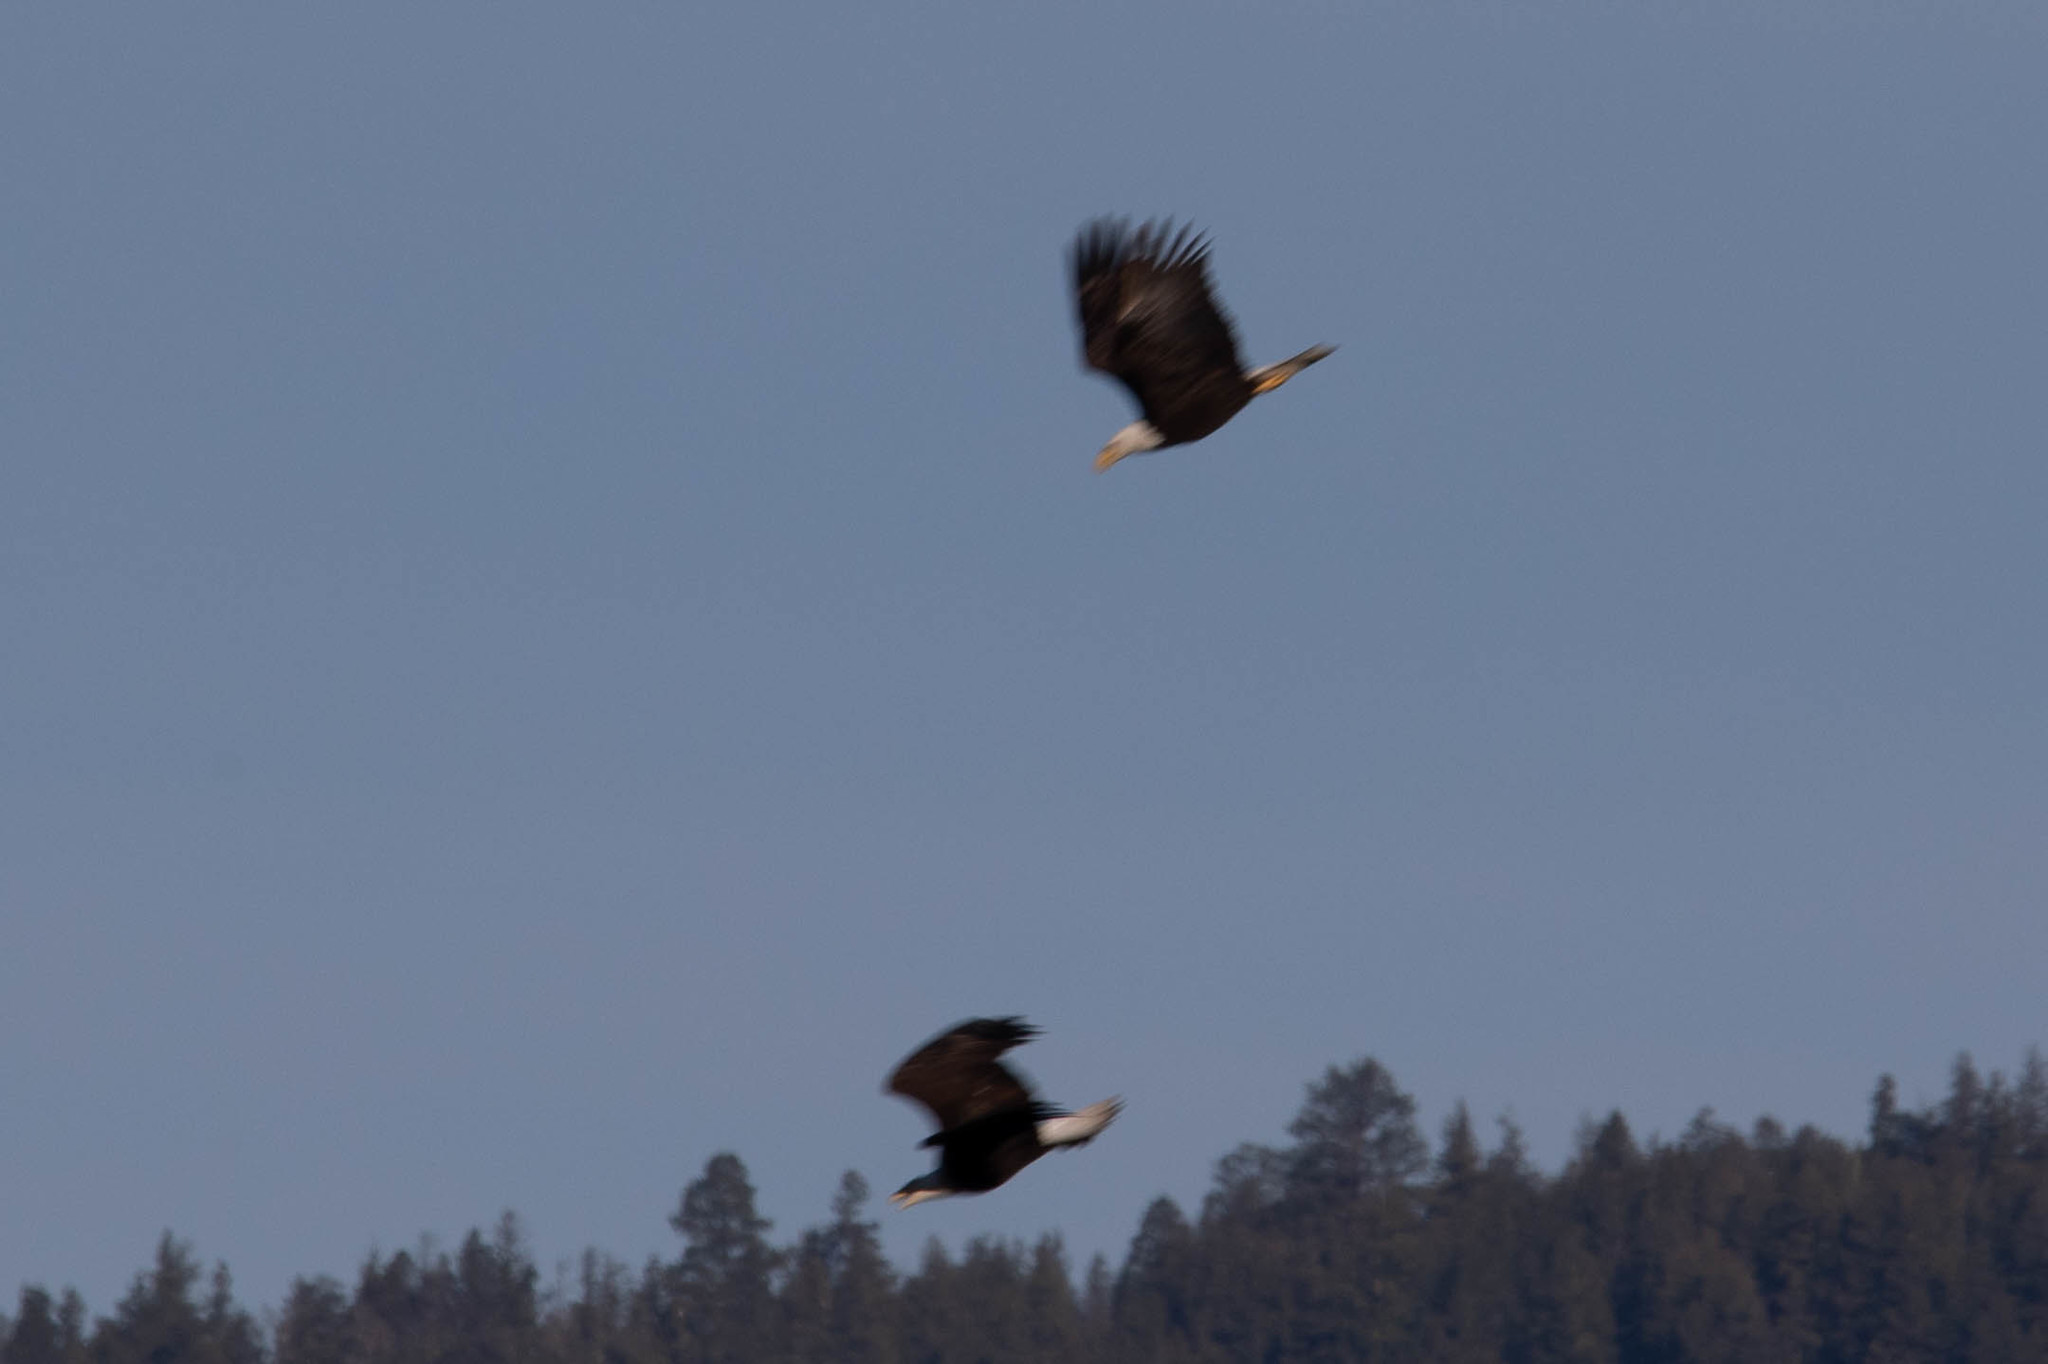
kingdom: Animalia
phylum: Chordata
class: Aves
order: Accipitriformes
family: Accipitridae
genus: Haliaeetus
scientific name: Haliaeetus leucocephalus
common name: Bald eagle
